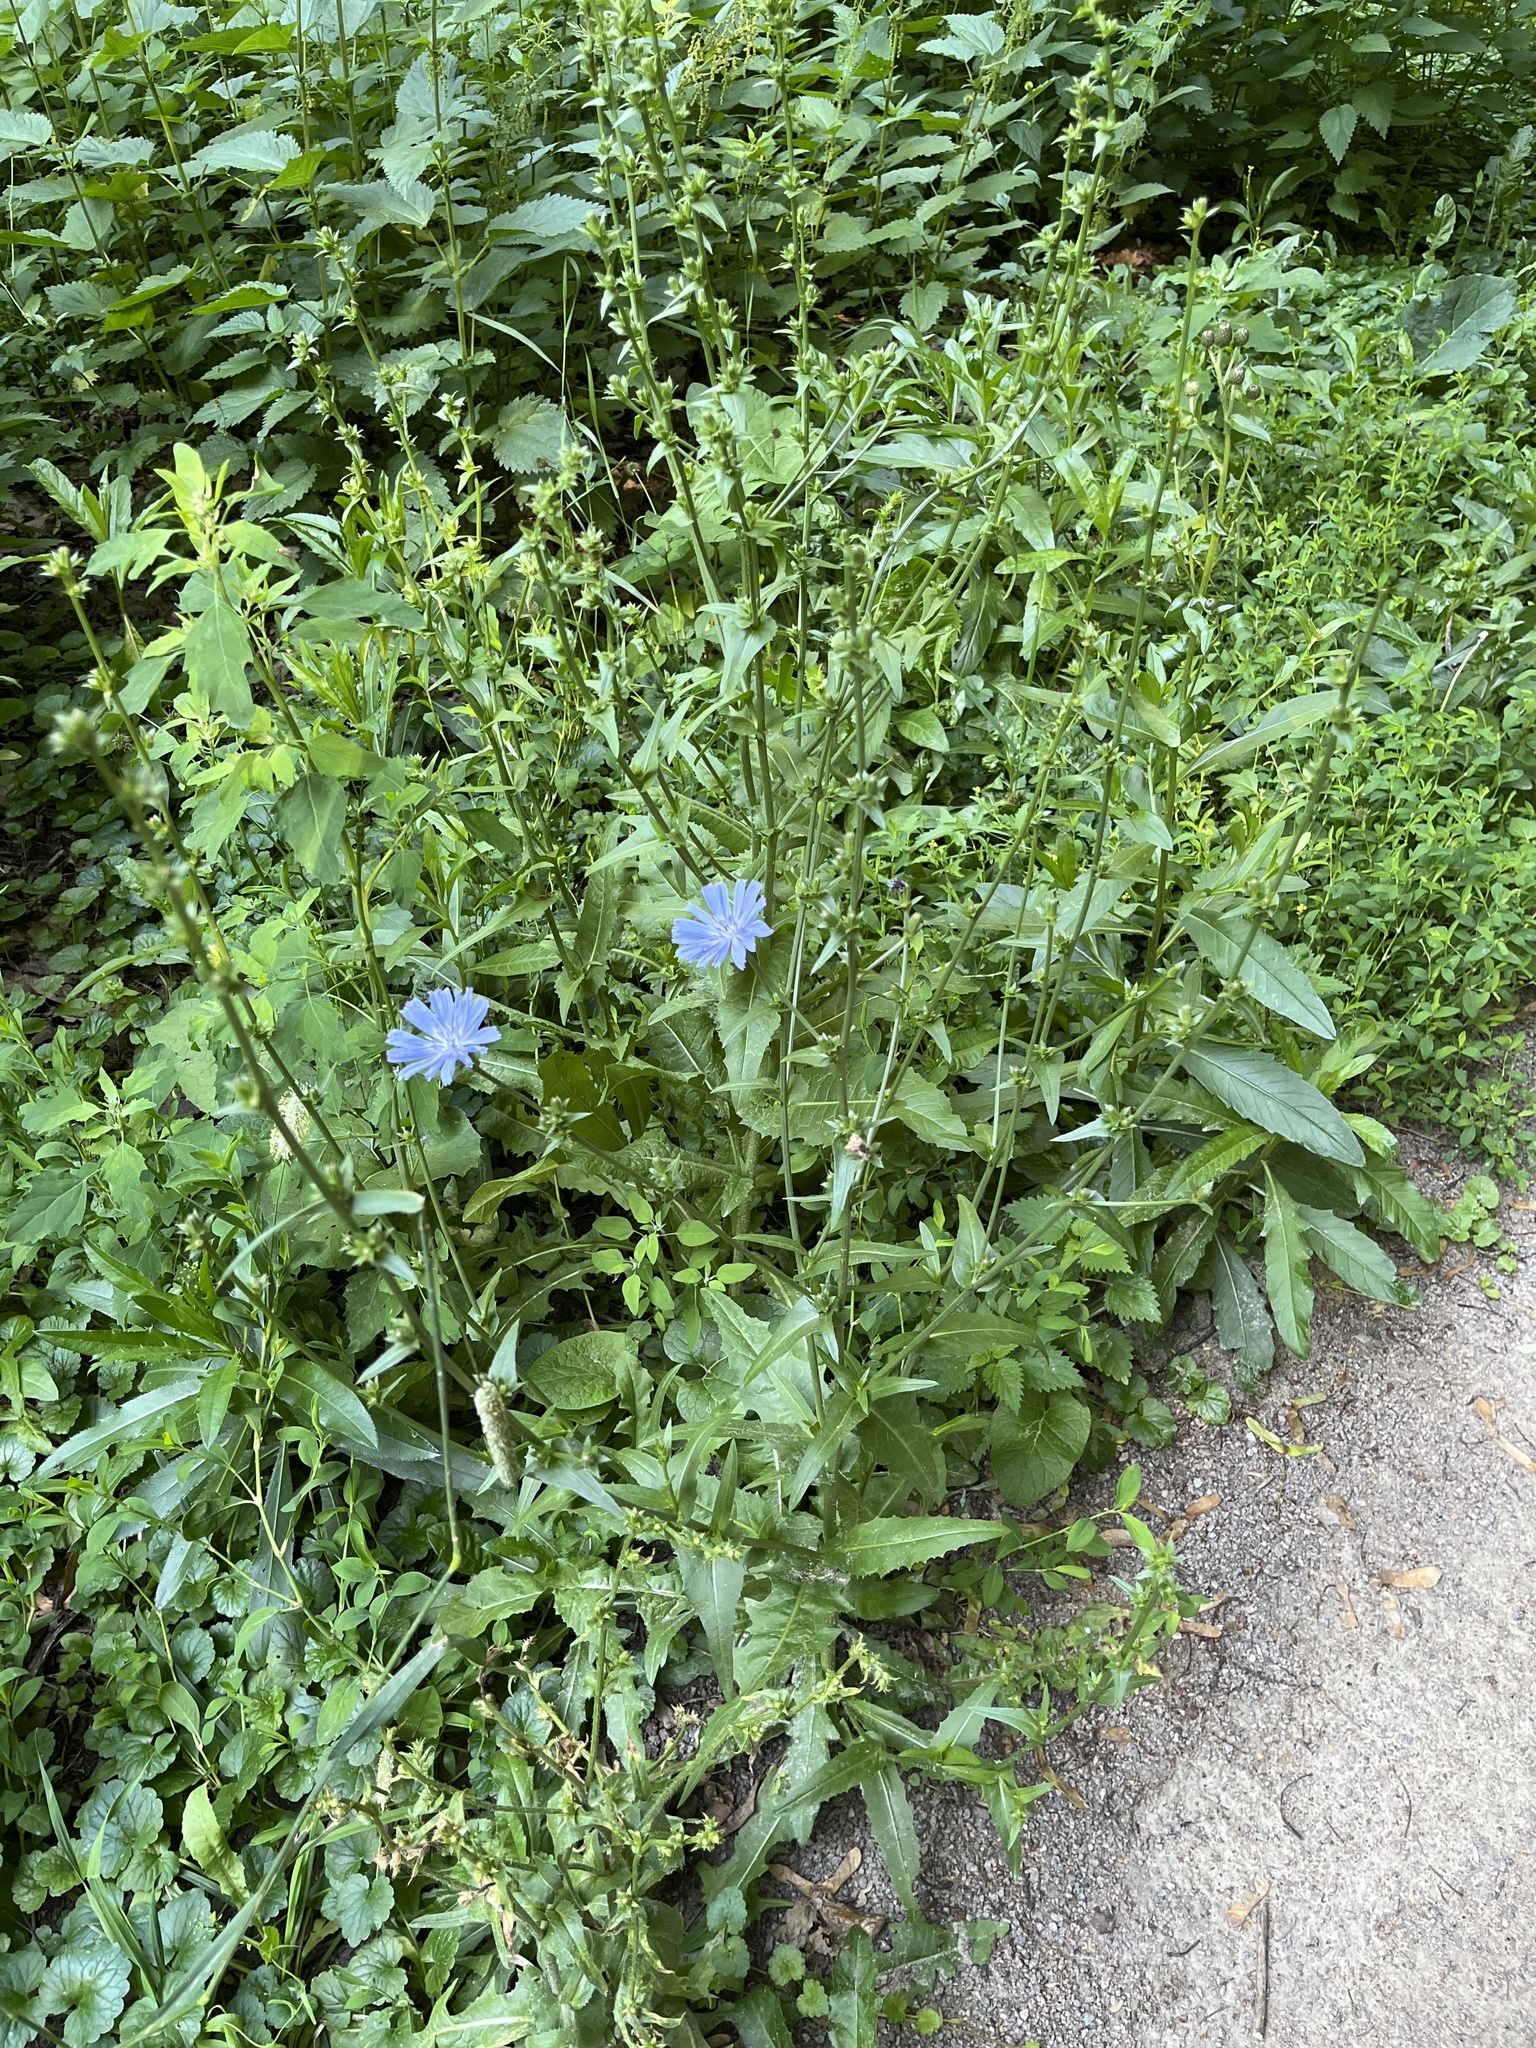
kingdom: Plantae
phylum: Tracheophyta
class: Magnoliopsida
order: Asterales
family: Asteraceae
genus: Cichorium
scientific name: Cichorium intybus
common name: Chicory
